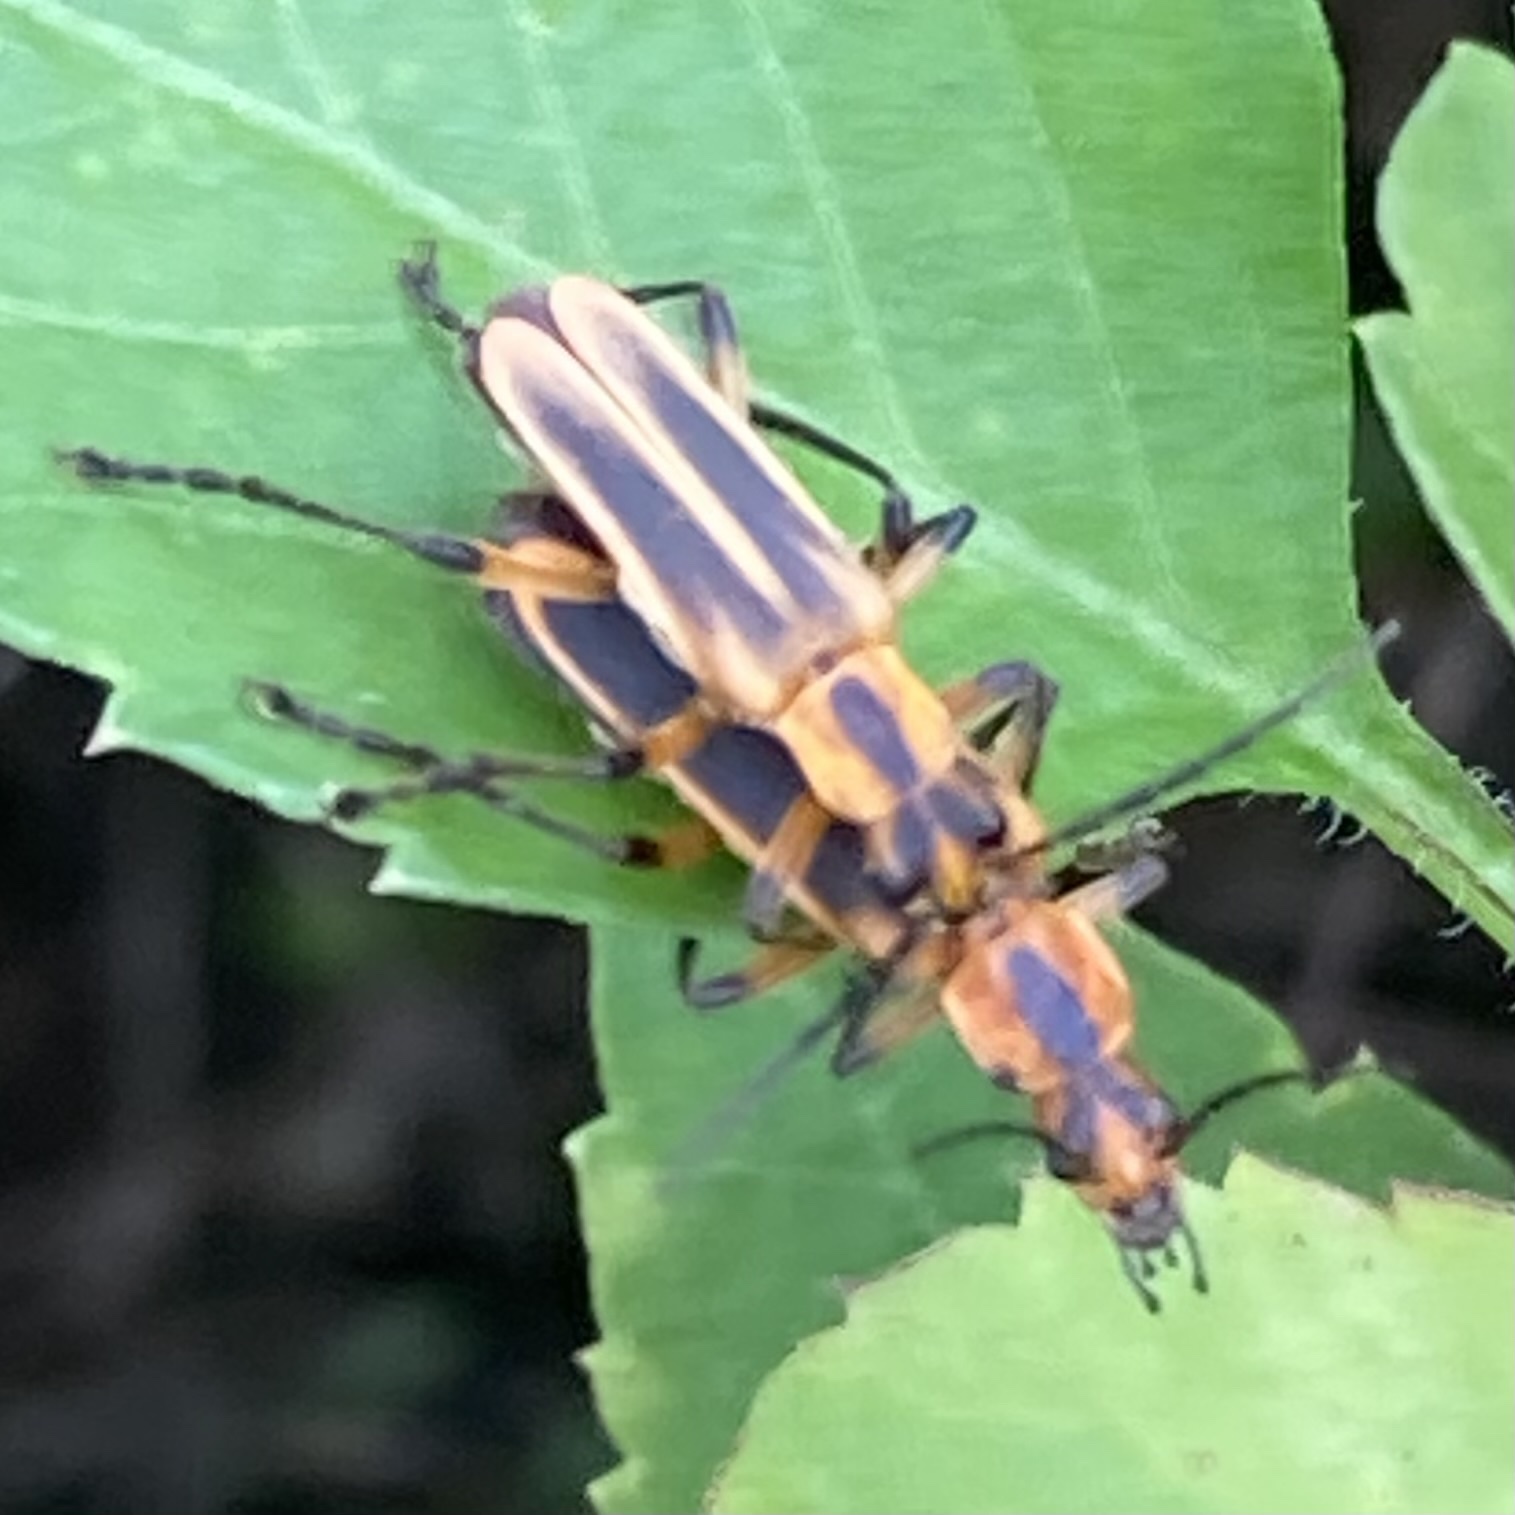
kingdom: Animalia
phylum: Arthropoda
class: Insecta
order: Coleoptera
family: Cantharidae
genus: Chauliognathus
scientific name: Chauliognathus marginatus
